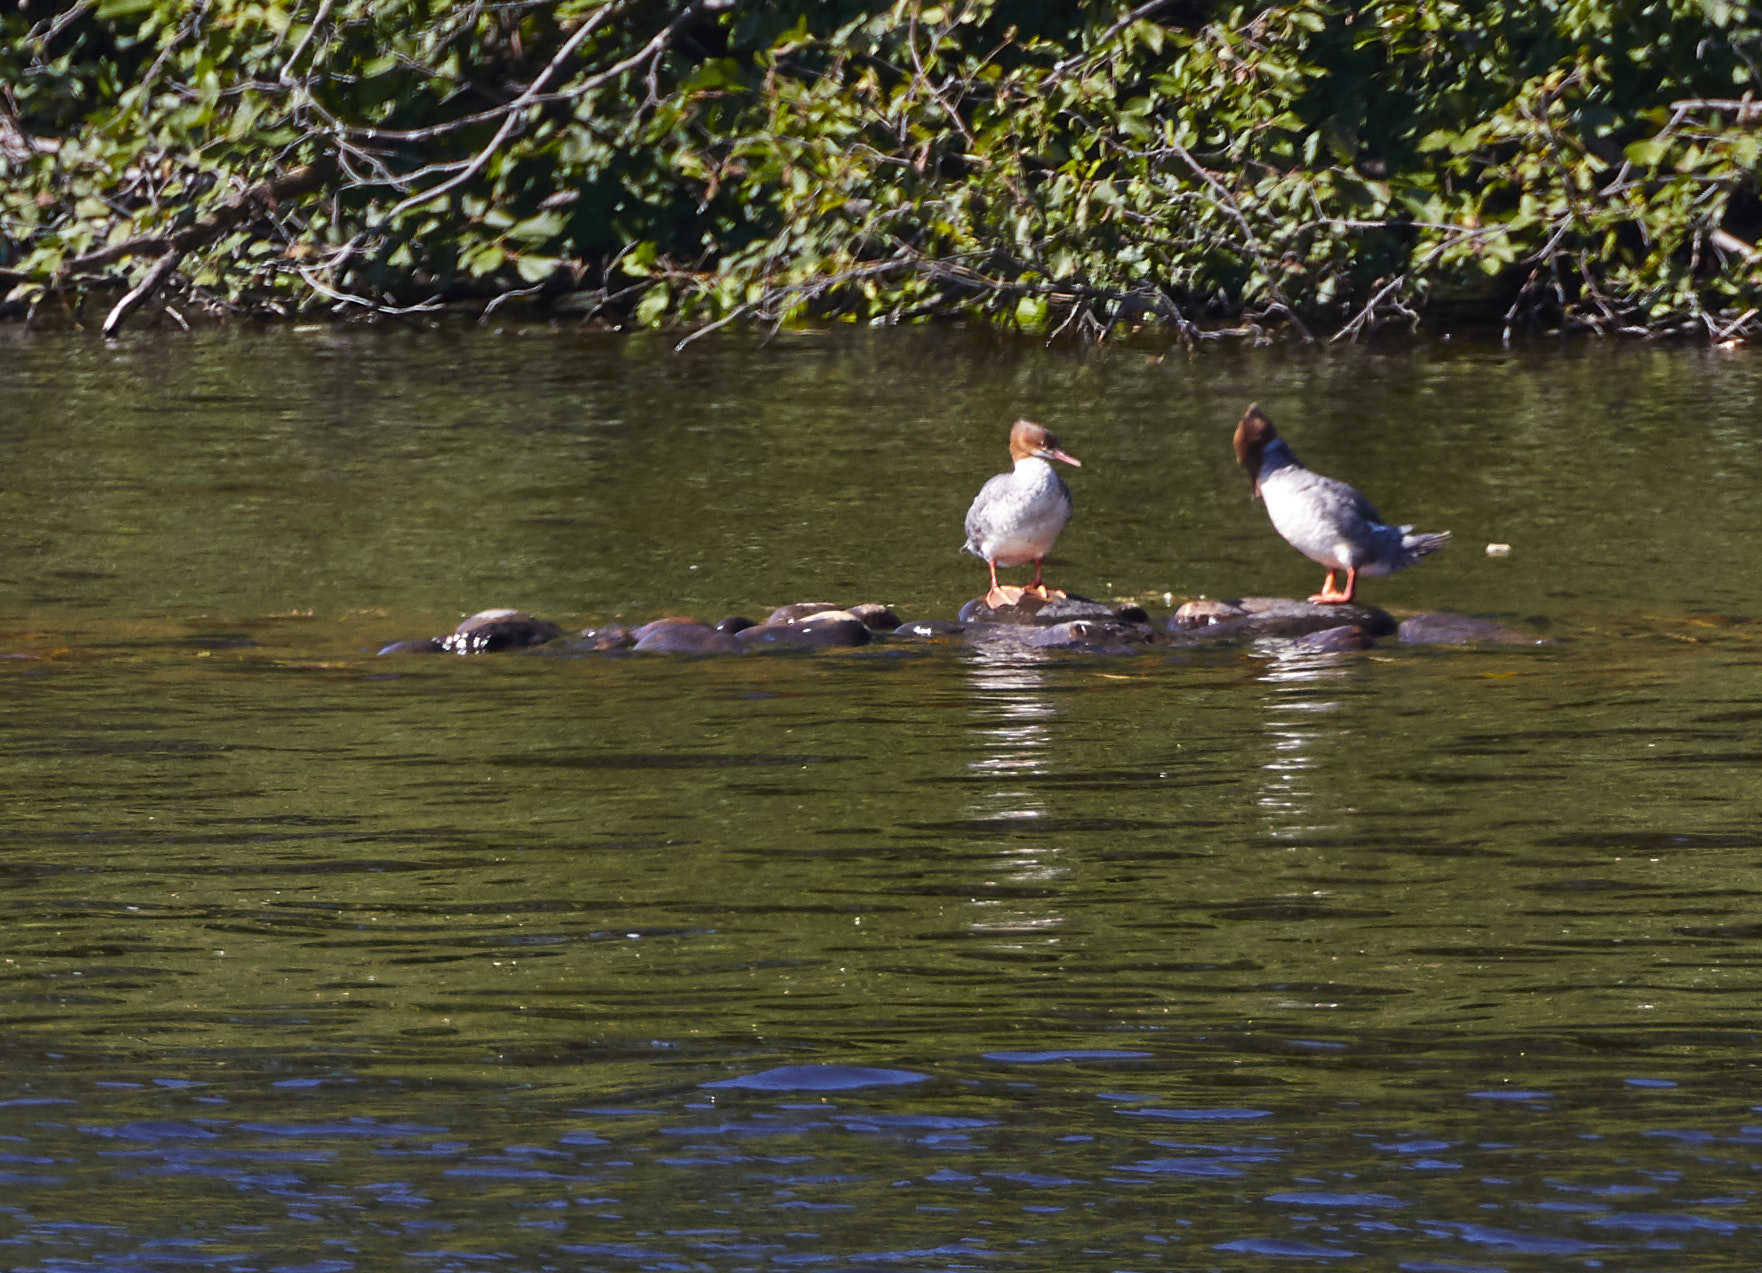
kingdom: Animalia
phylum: Chordata
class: Aves
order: Anseriformes
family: Anatidae
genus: Mergus
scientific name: Mergus merganser
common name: Common merganser
